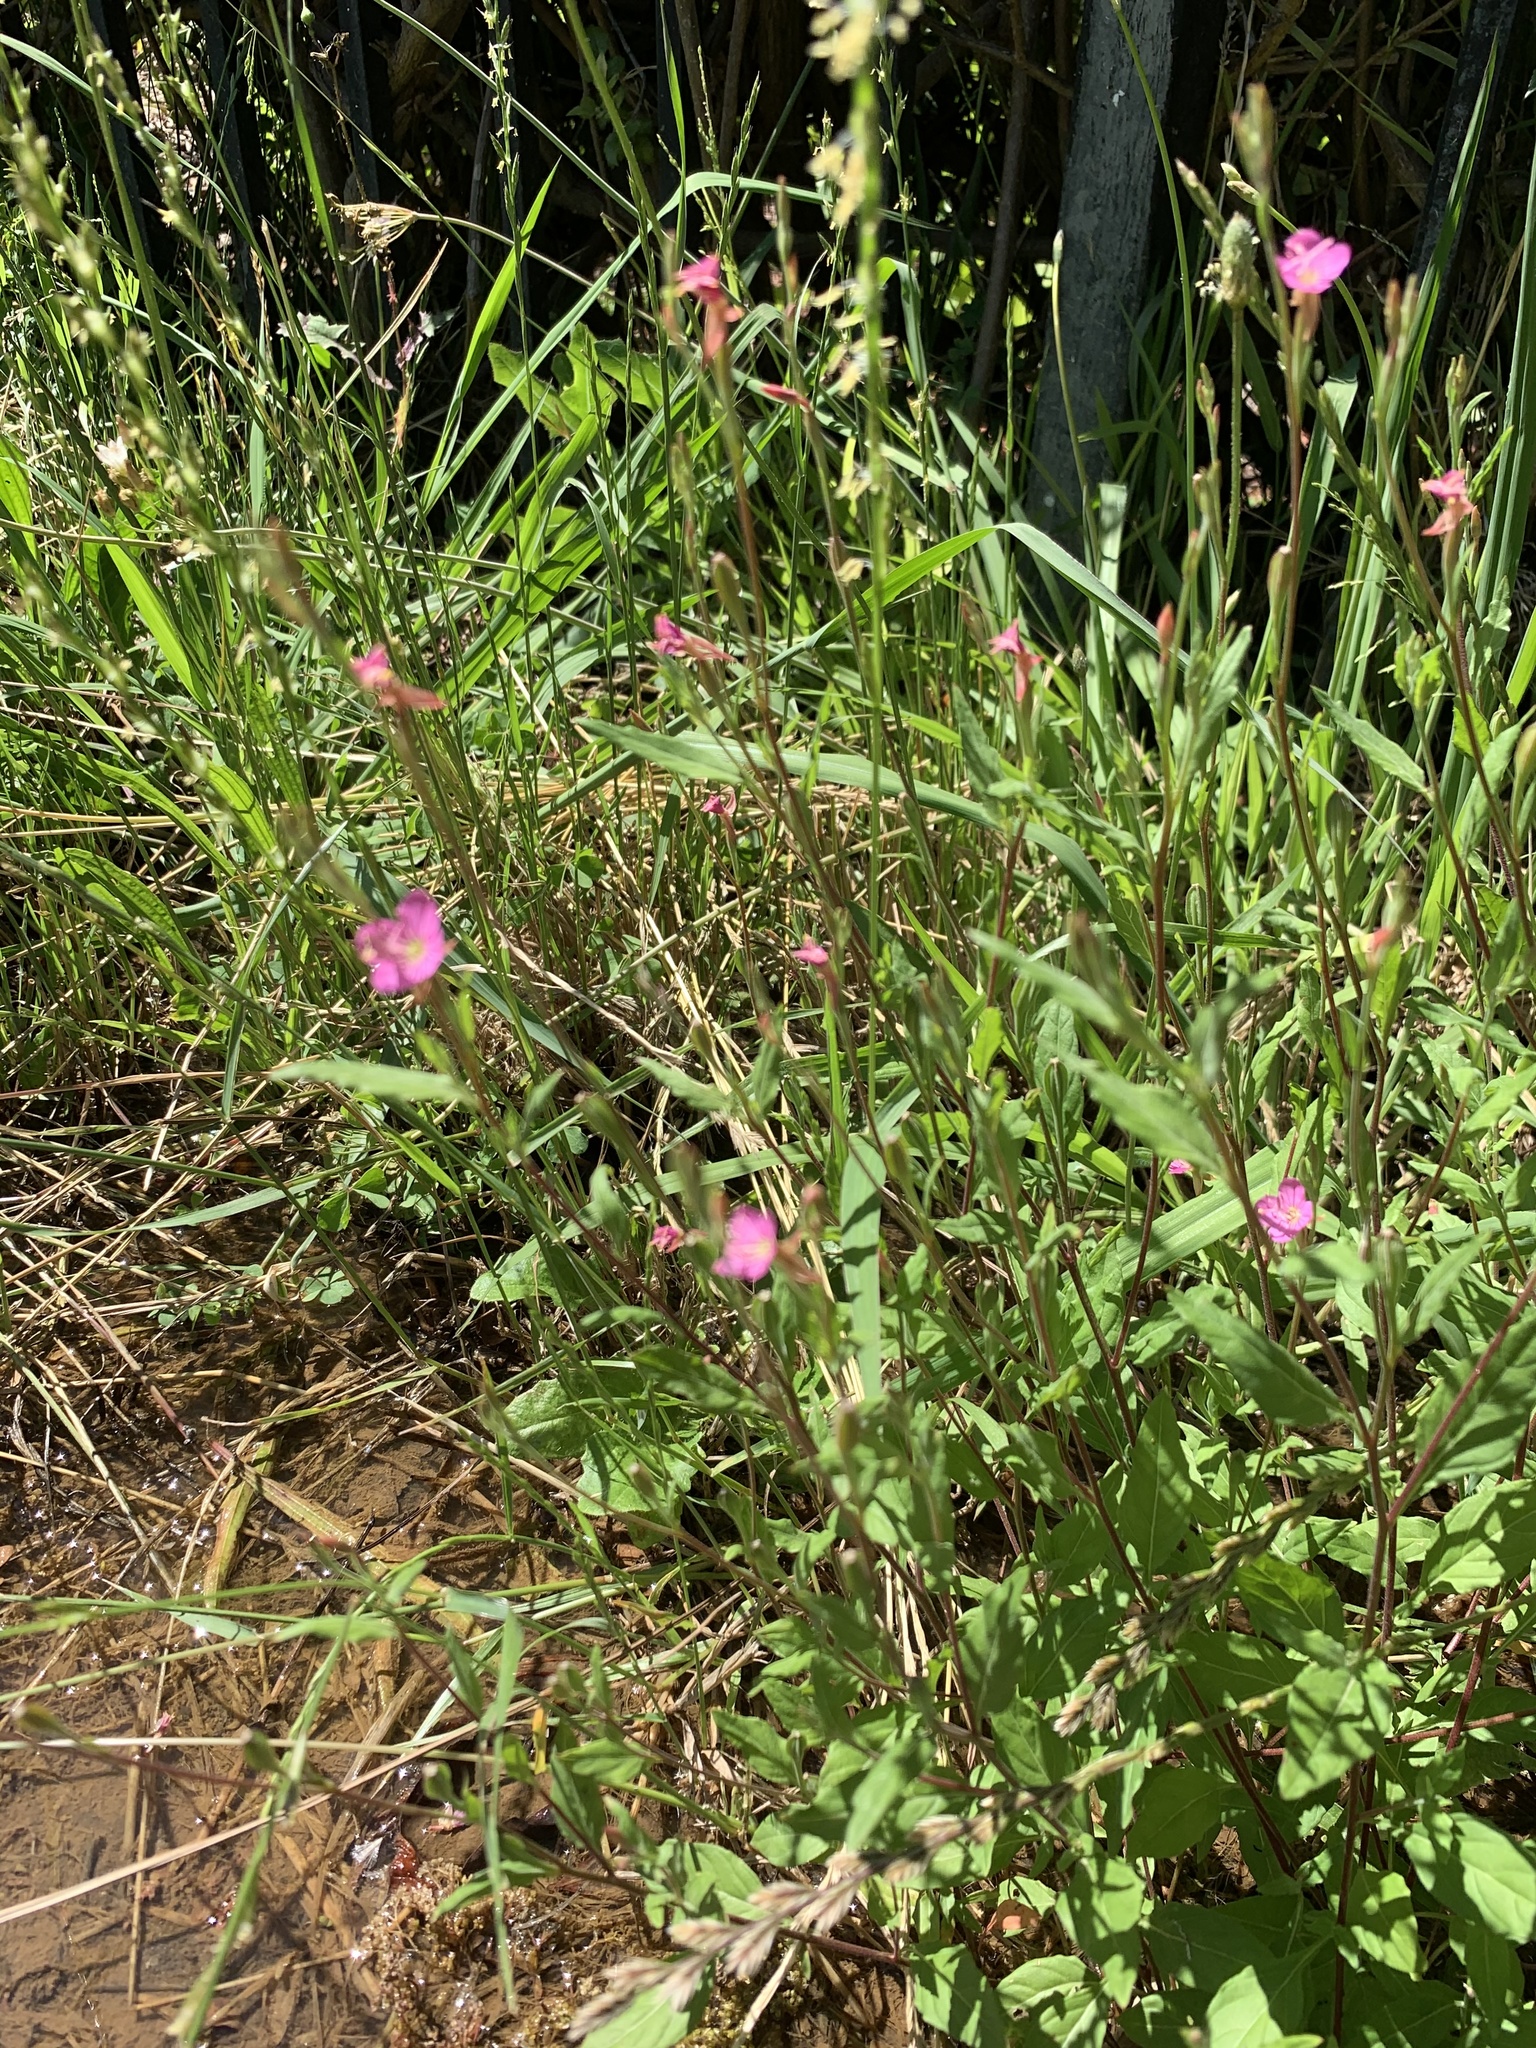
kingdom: Plantae
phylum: Tracheophyta
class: Magnoliopsida
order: Myrtales
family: Onagraceae
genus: Oenothera
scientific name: Oenothera rosea
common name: Rosy evening-primrose
